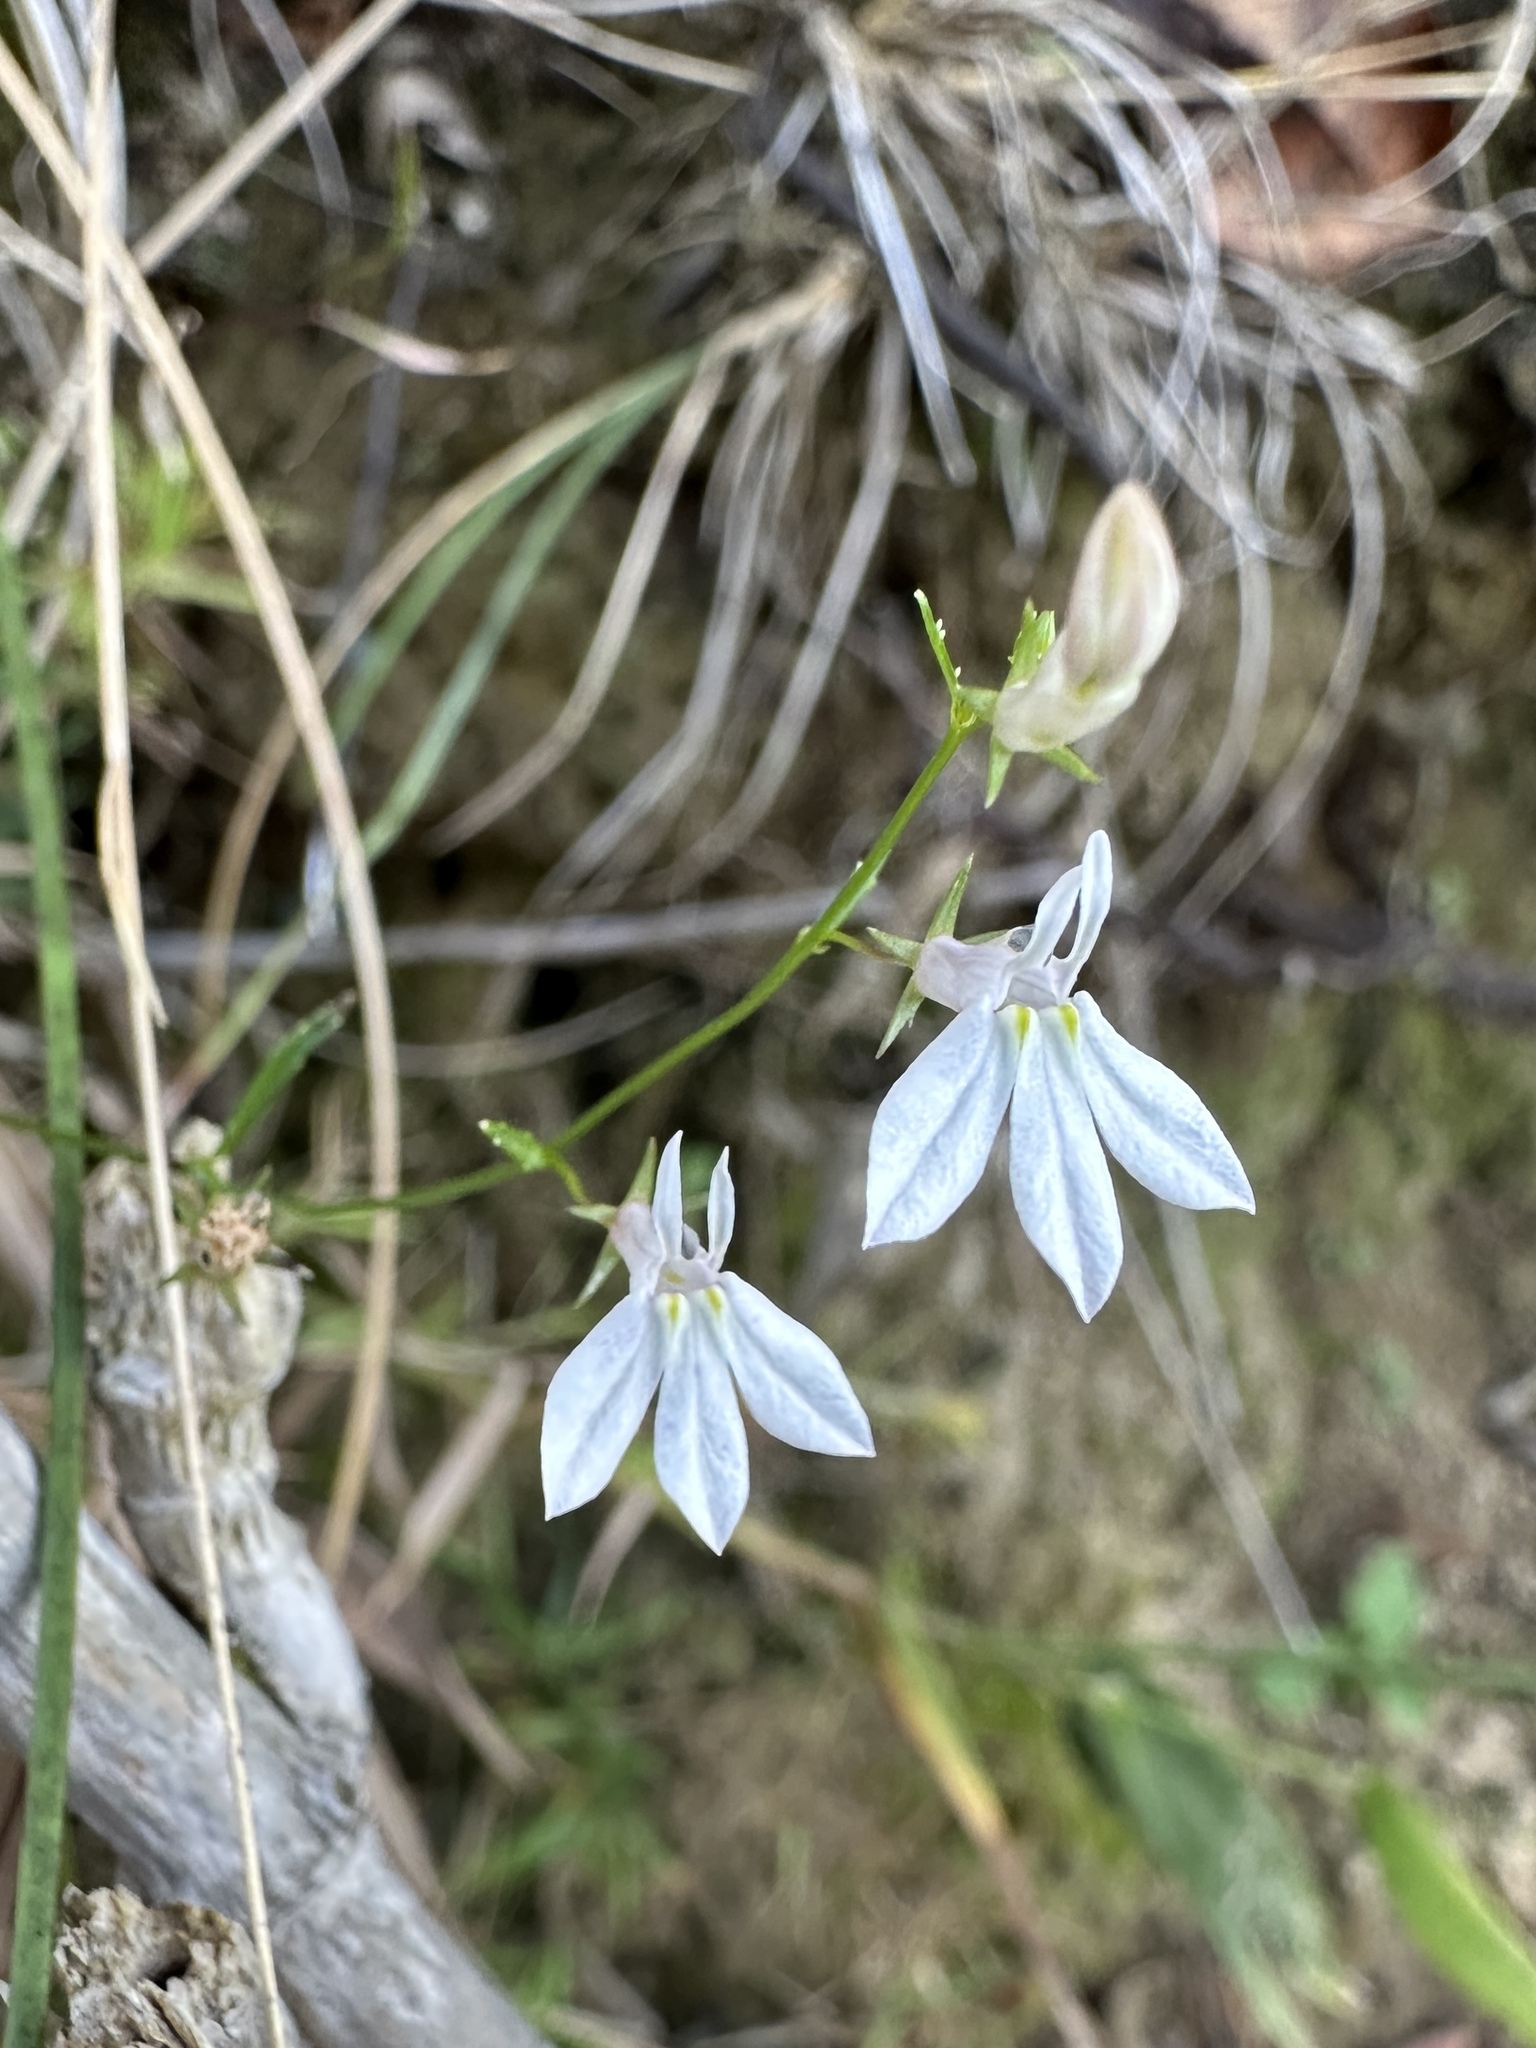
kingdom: Plantae
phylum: Tracheophyta
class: Magnoliopsida
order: Asterales
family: Campanulaceae
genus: Lobelia
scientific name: Lobelia nuttallii
